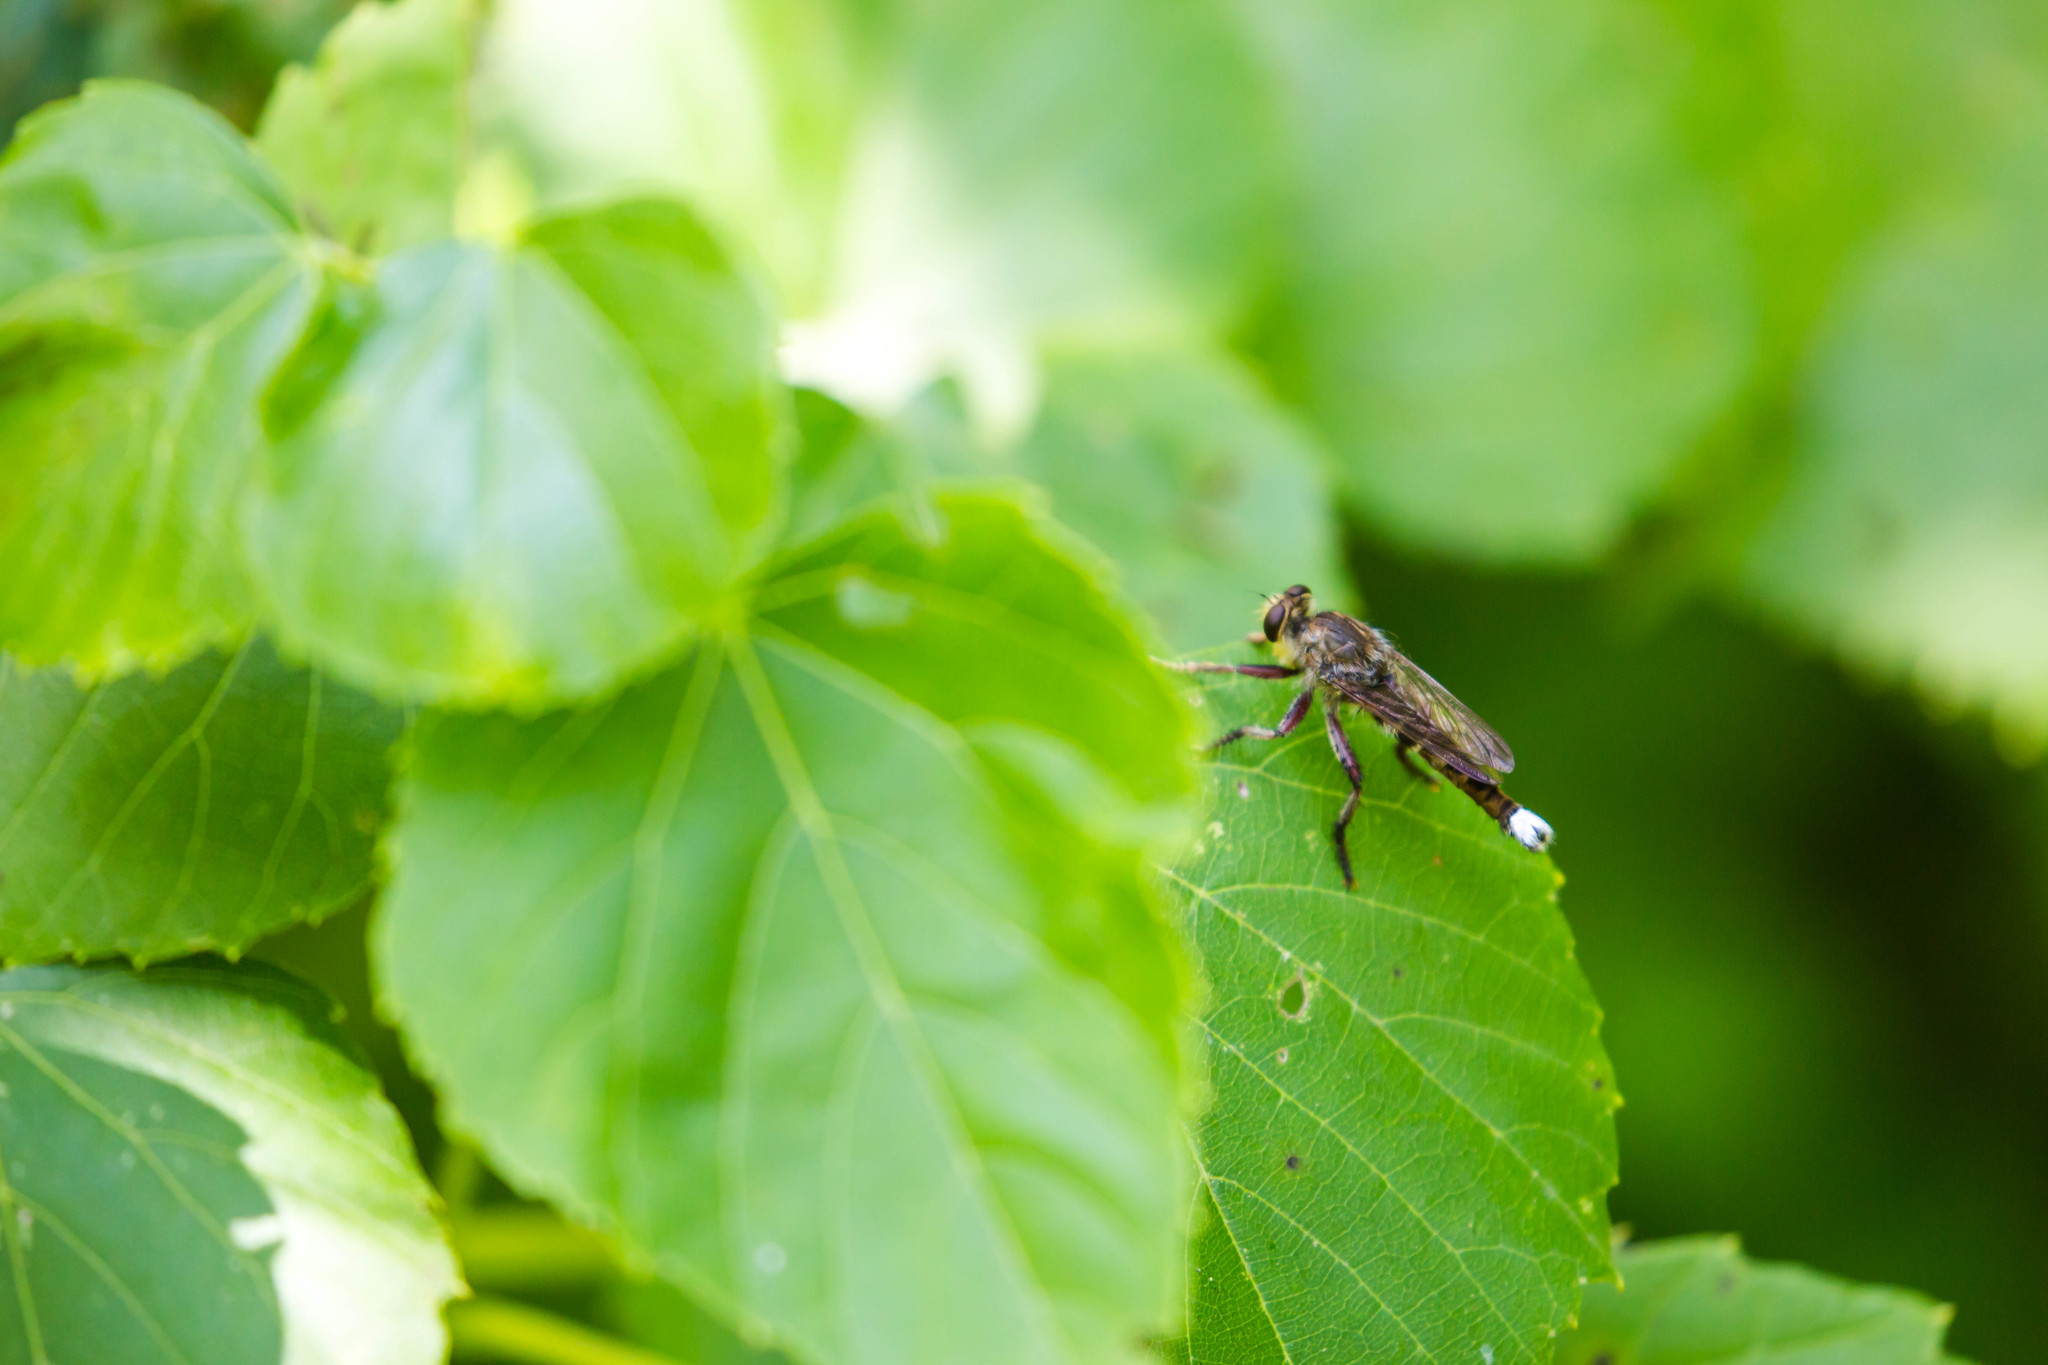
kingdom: Animalia
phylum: Arthropoda
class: Insecta
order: Diptera
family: Asilidae
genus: Promachus
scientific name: Promachus bastardii
